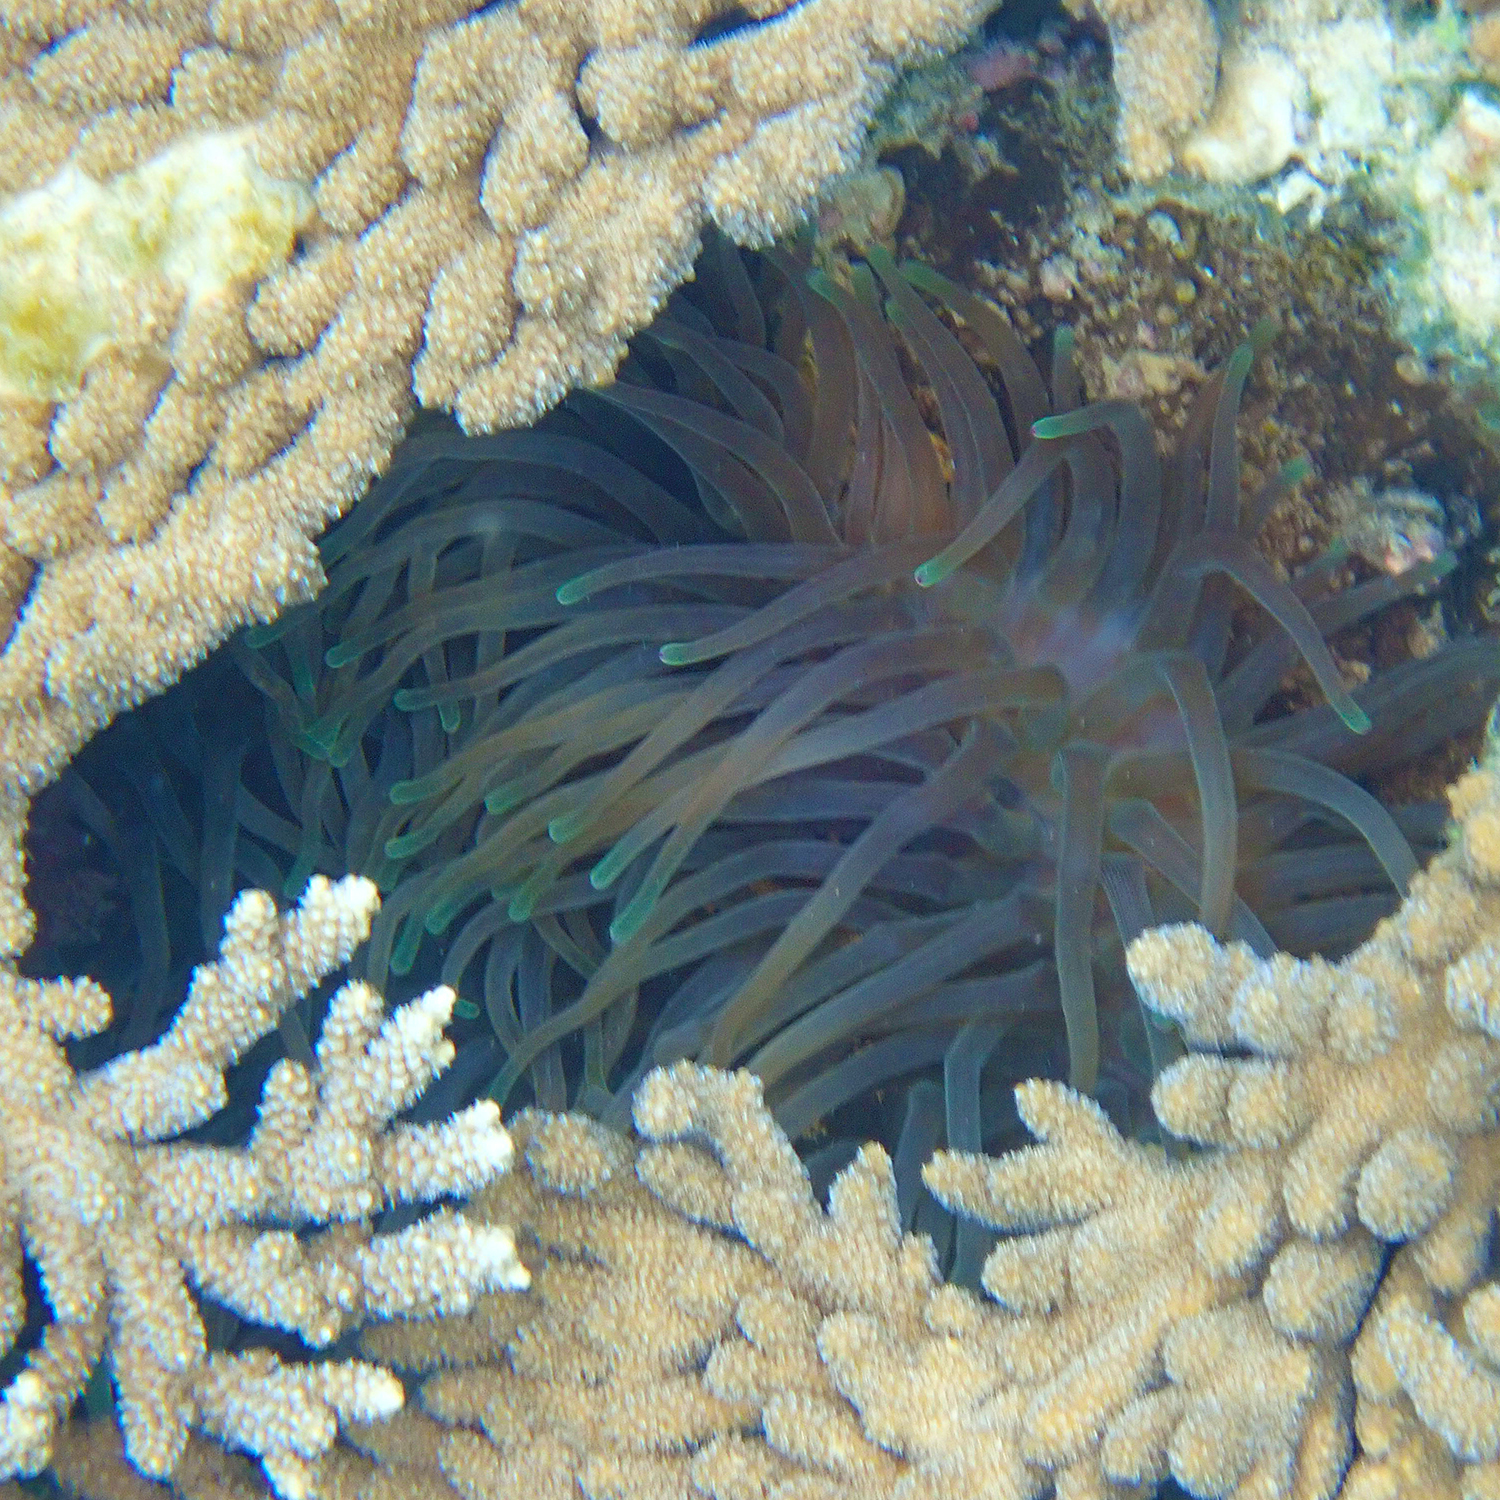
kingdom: Animalia
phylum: Cnidaria
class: Anthozoa
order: Actiniaria
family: Actiniidae
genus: Entacmaea
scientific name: Entacmaea quadricolor
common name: Bulb tentacle sea anemone
